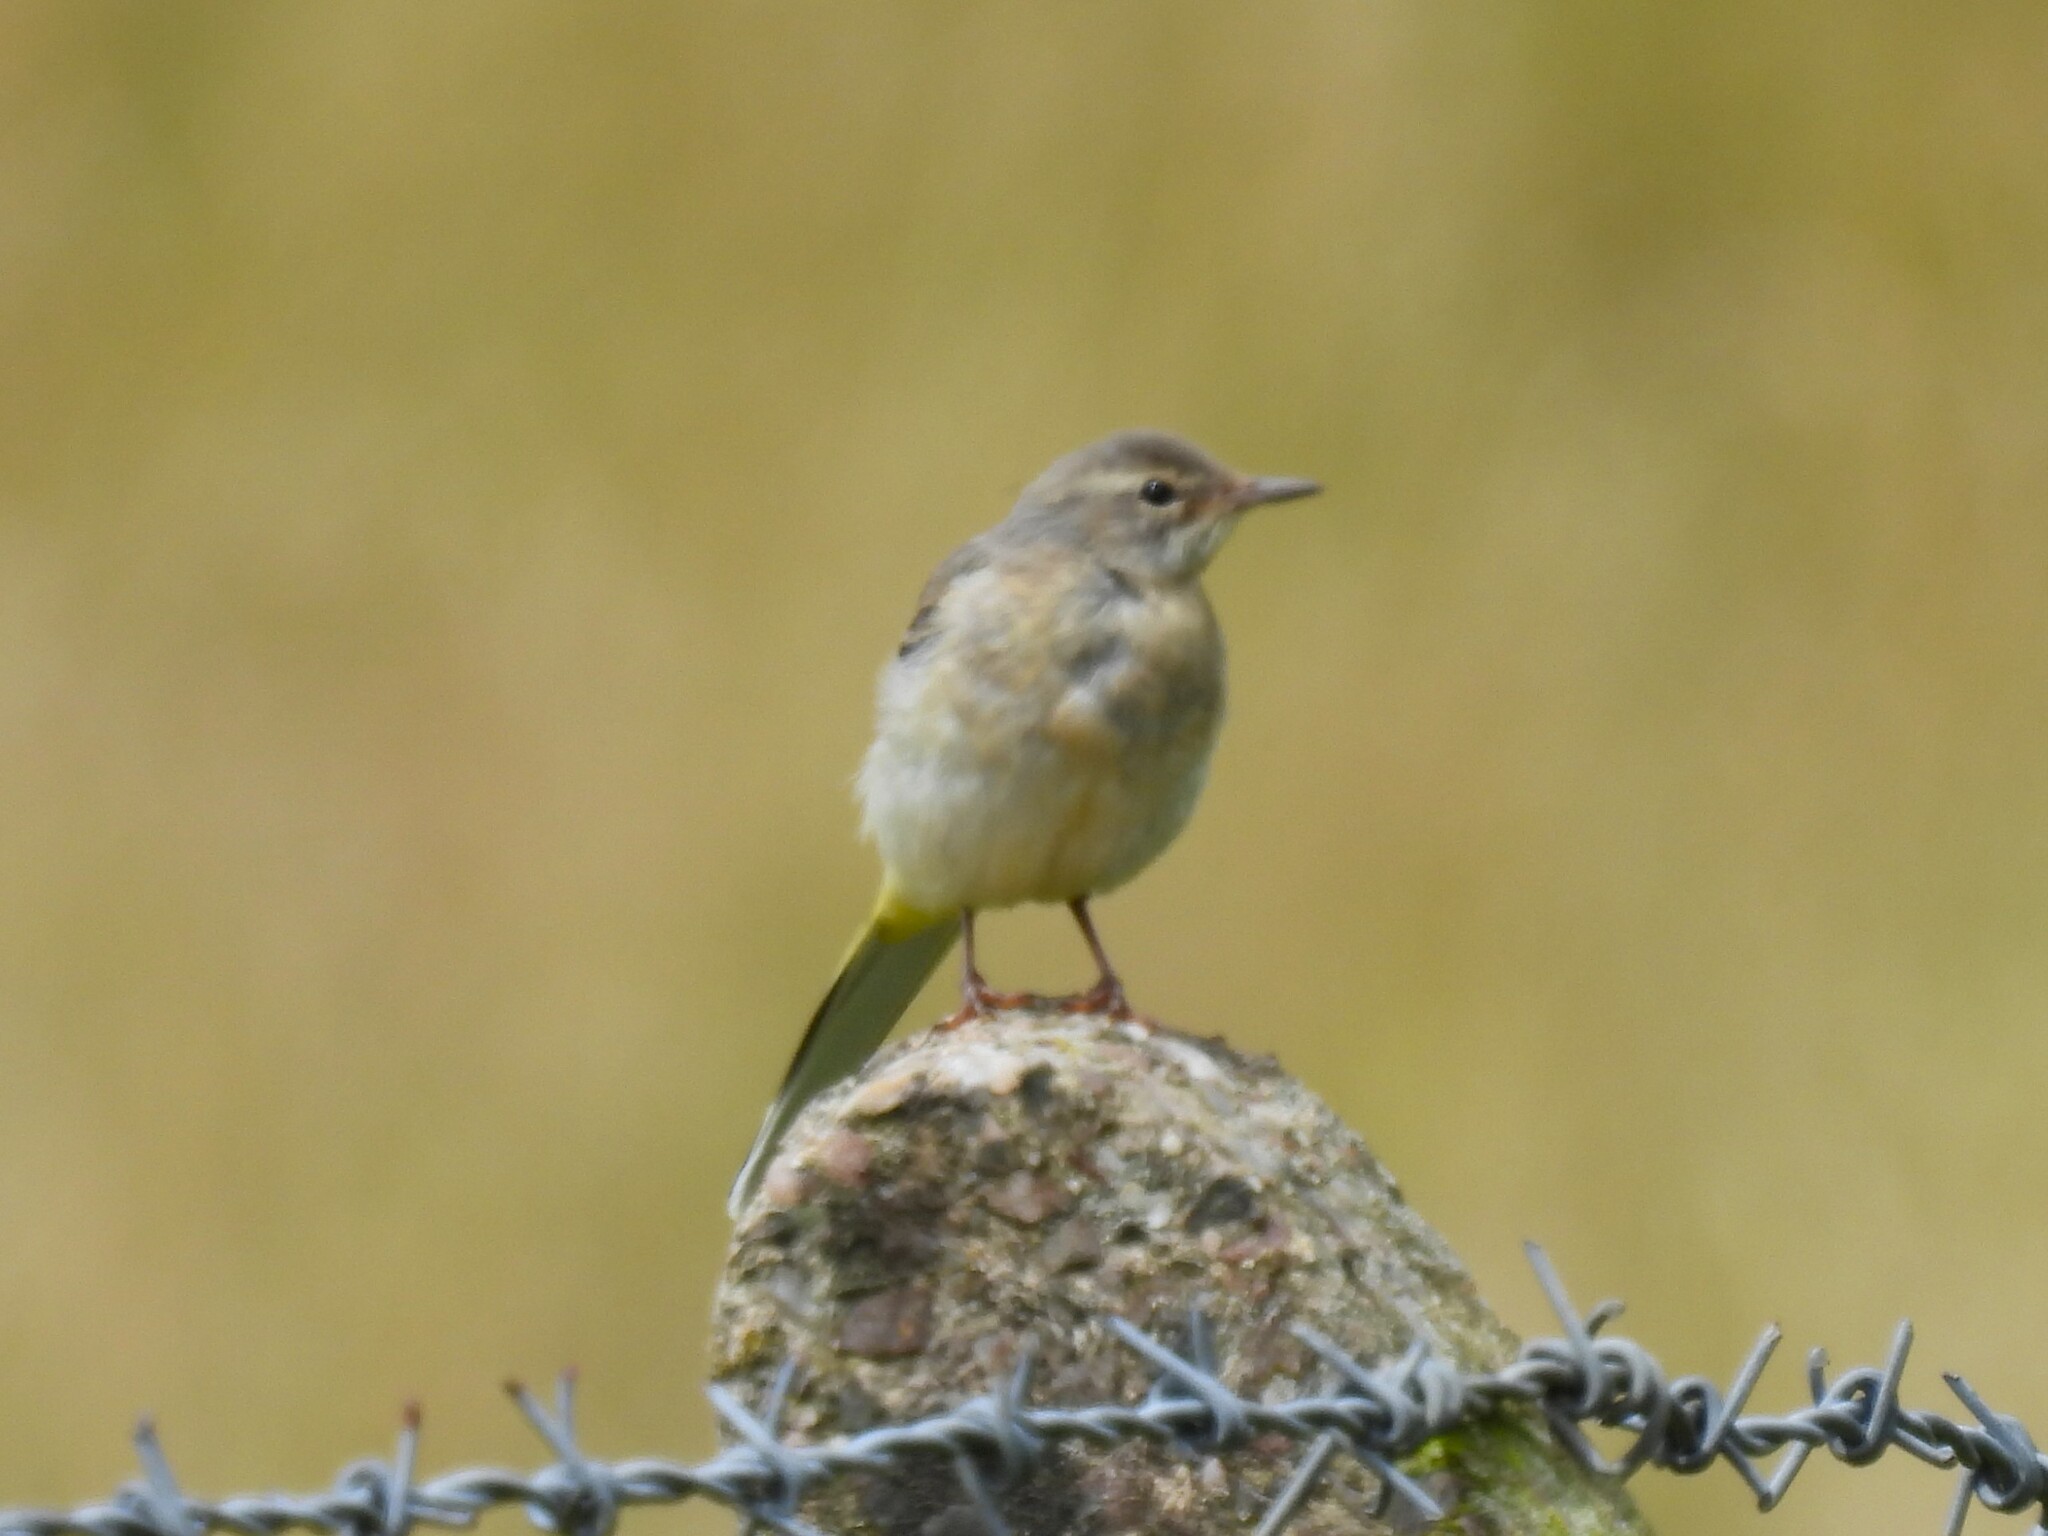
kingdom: Animalia
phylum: Chordata
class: Aves
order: Passeriformes
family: Motacillidae
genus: Motacilla
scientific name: Motacilla cinerea
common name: Grey wagtail
